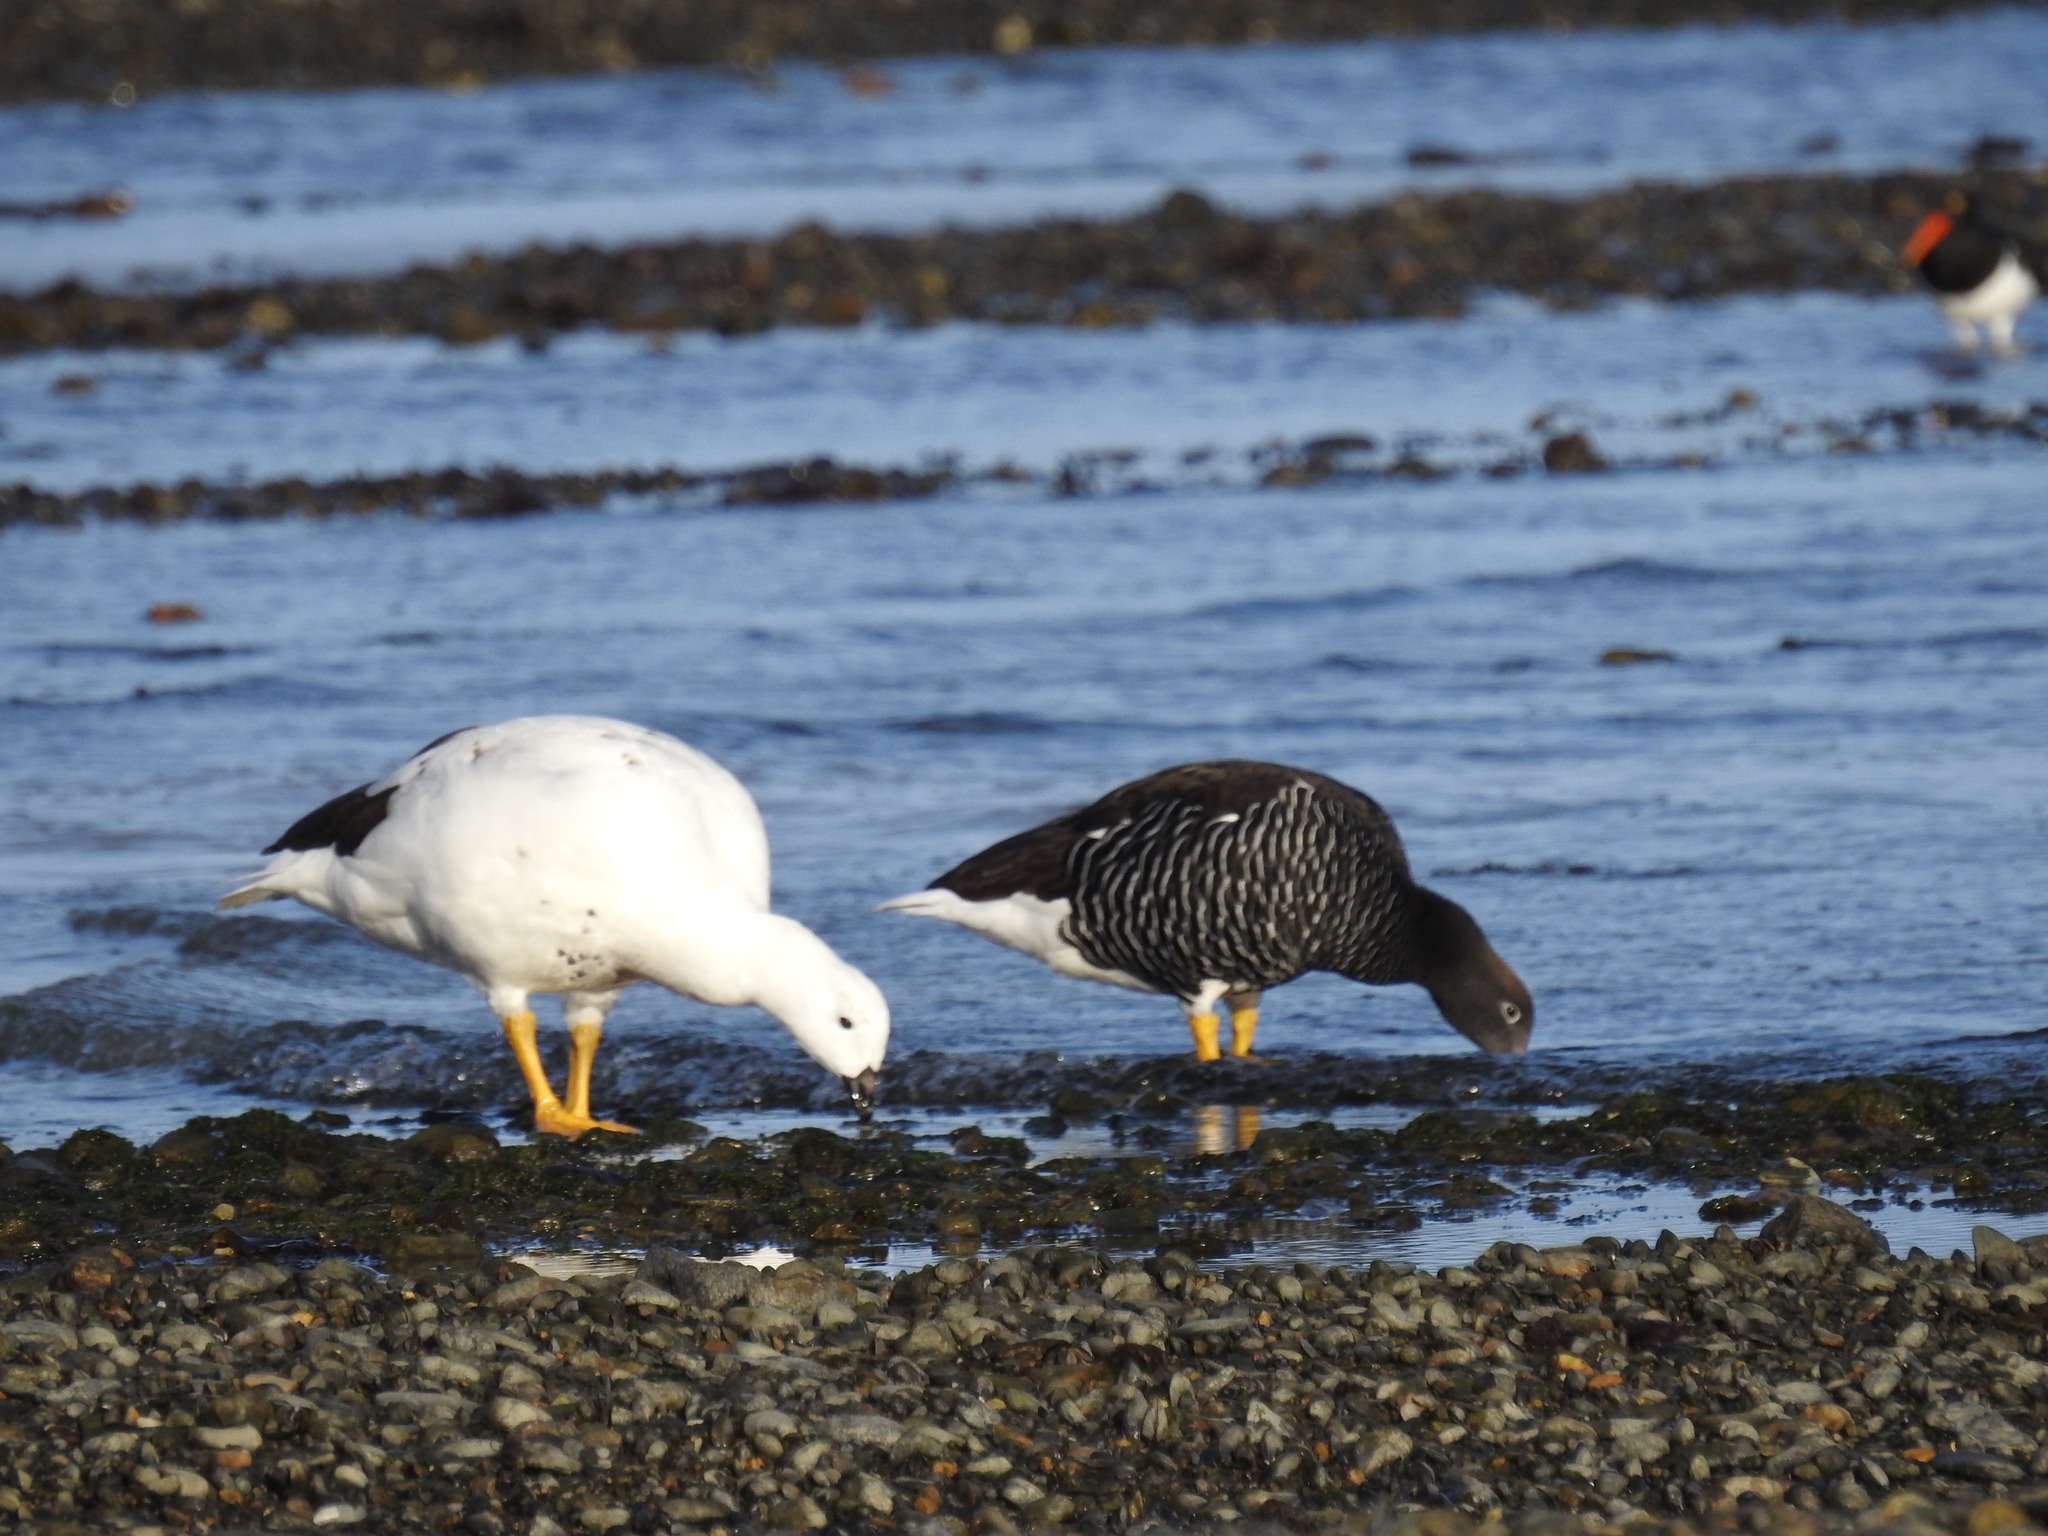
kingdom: Animalia
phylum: Chordata
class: Aves
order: Anseriformes
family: Anatidae
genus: Chloephaga
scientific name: Chloephaga hybrida
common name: Kelp goose
